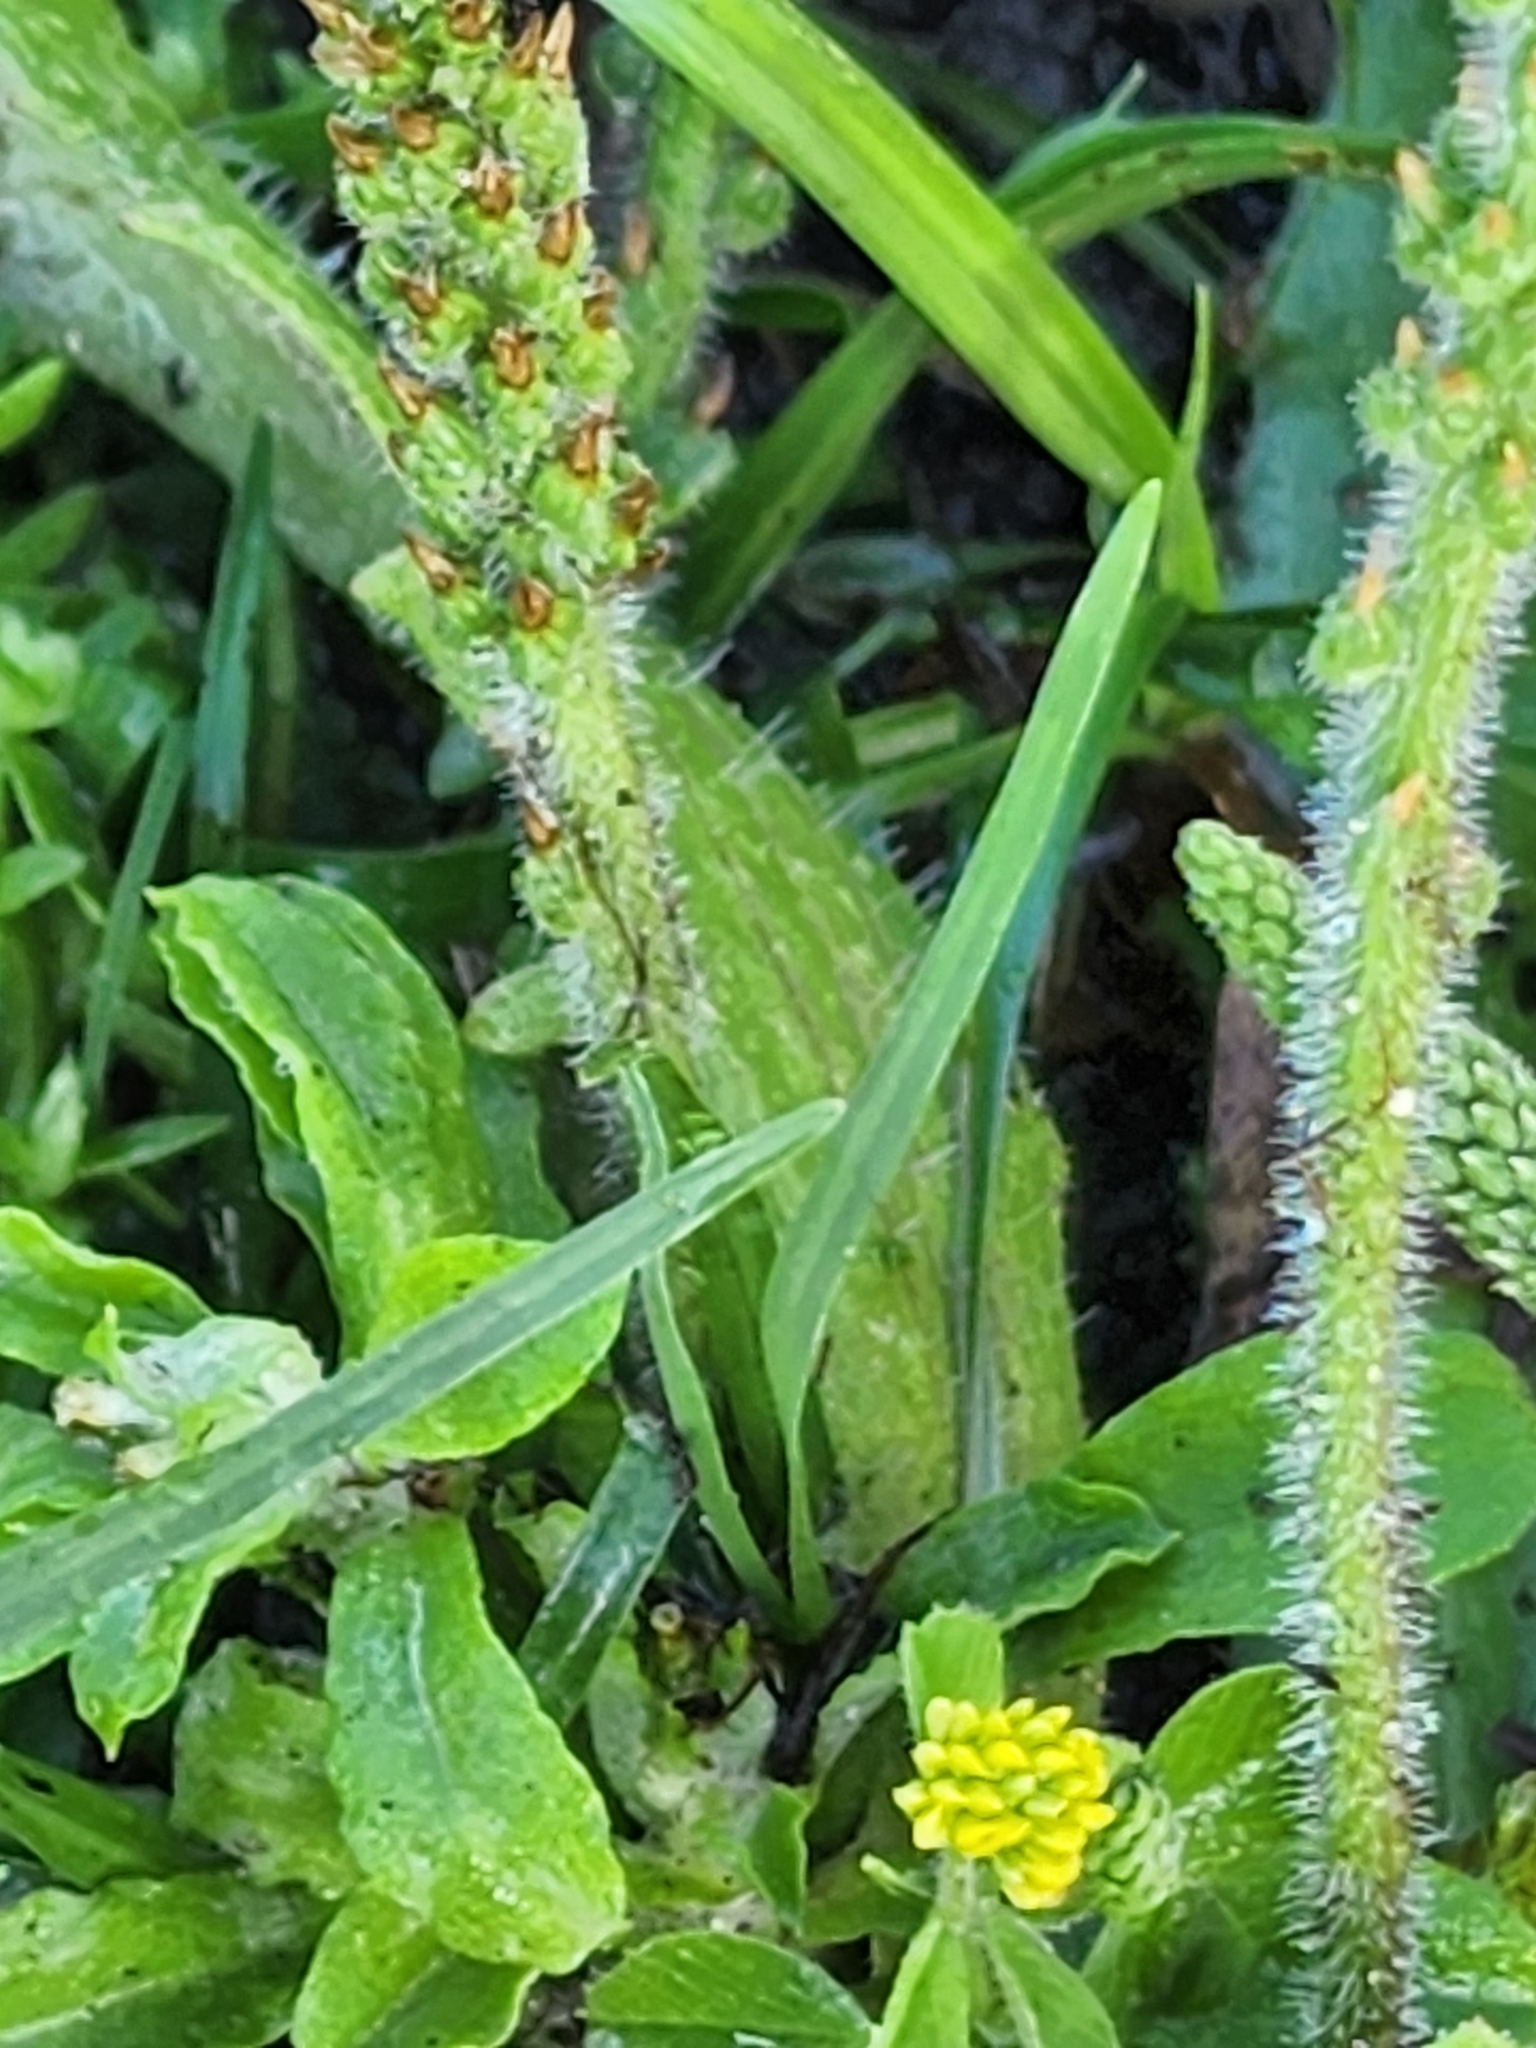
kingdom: Plantae
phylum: Tracheophyta
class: Magnoliopsida
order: Lamiales
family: Plantaginaceae
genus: Plantago
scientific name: Plantago virginica
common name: Hoary plantain
